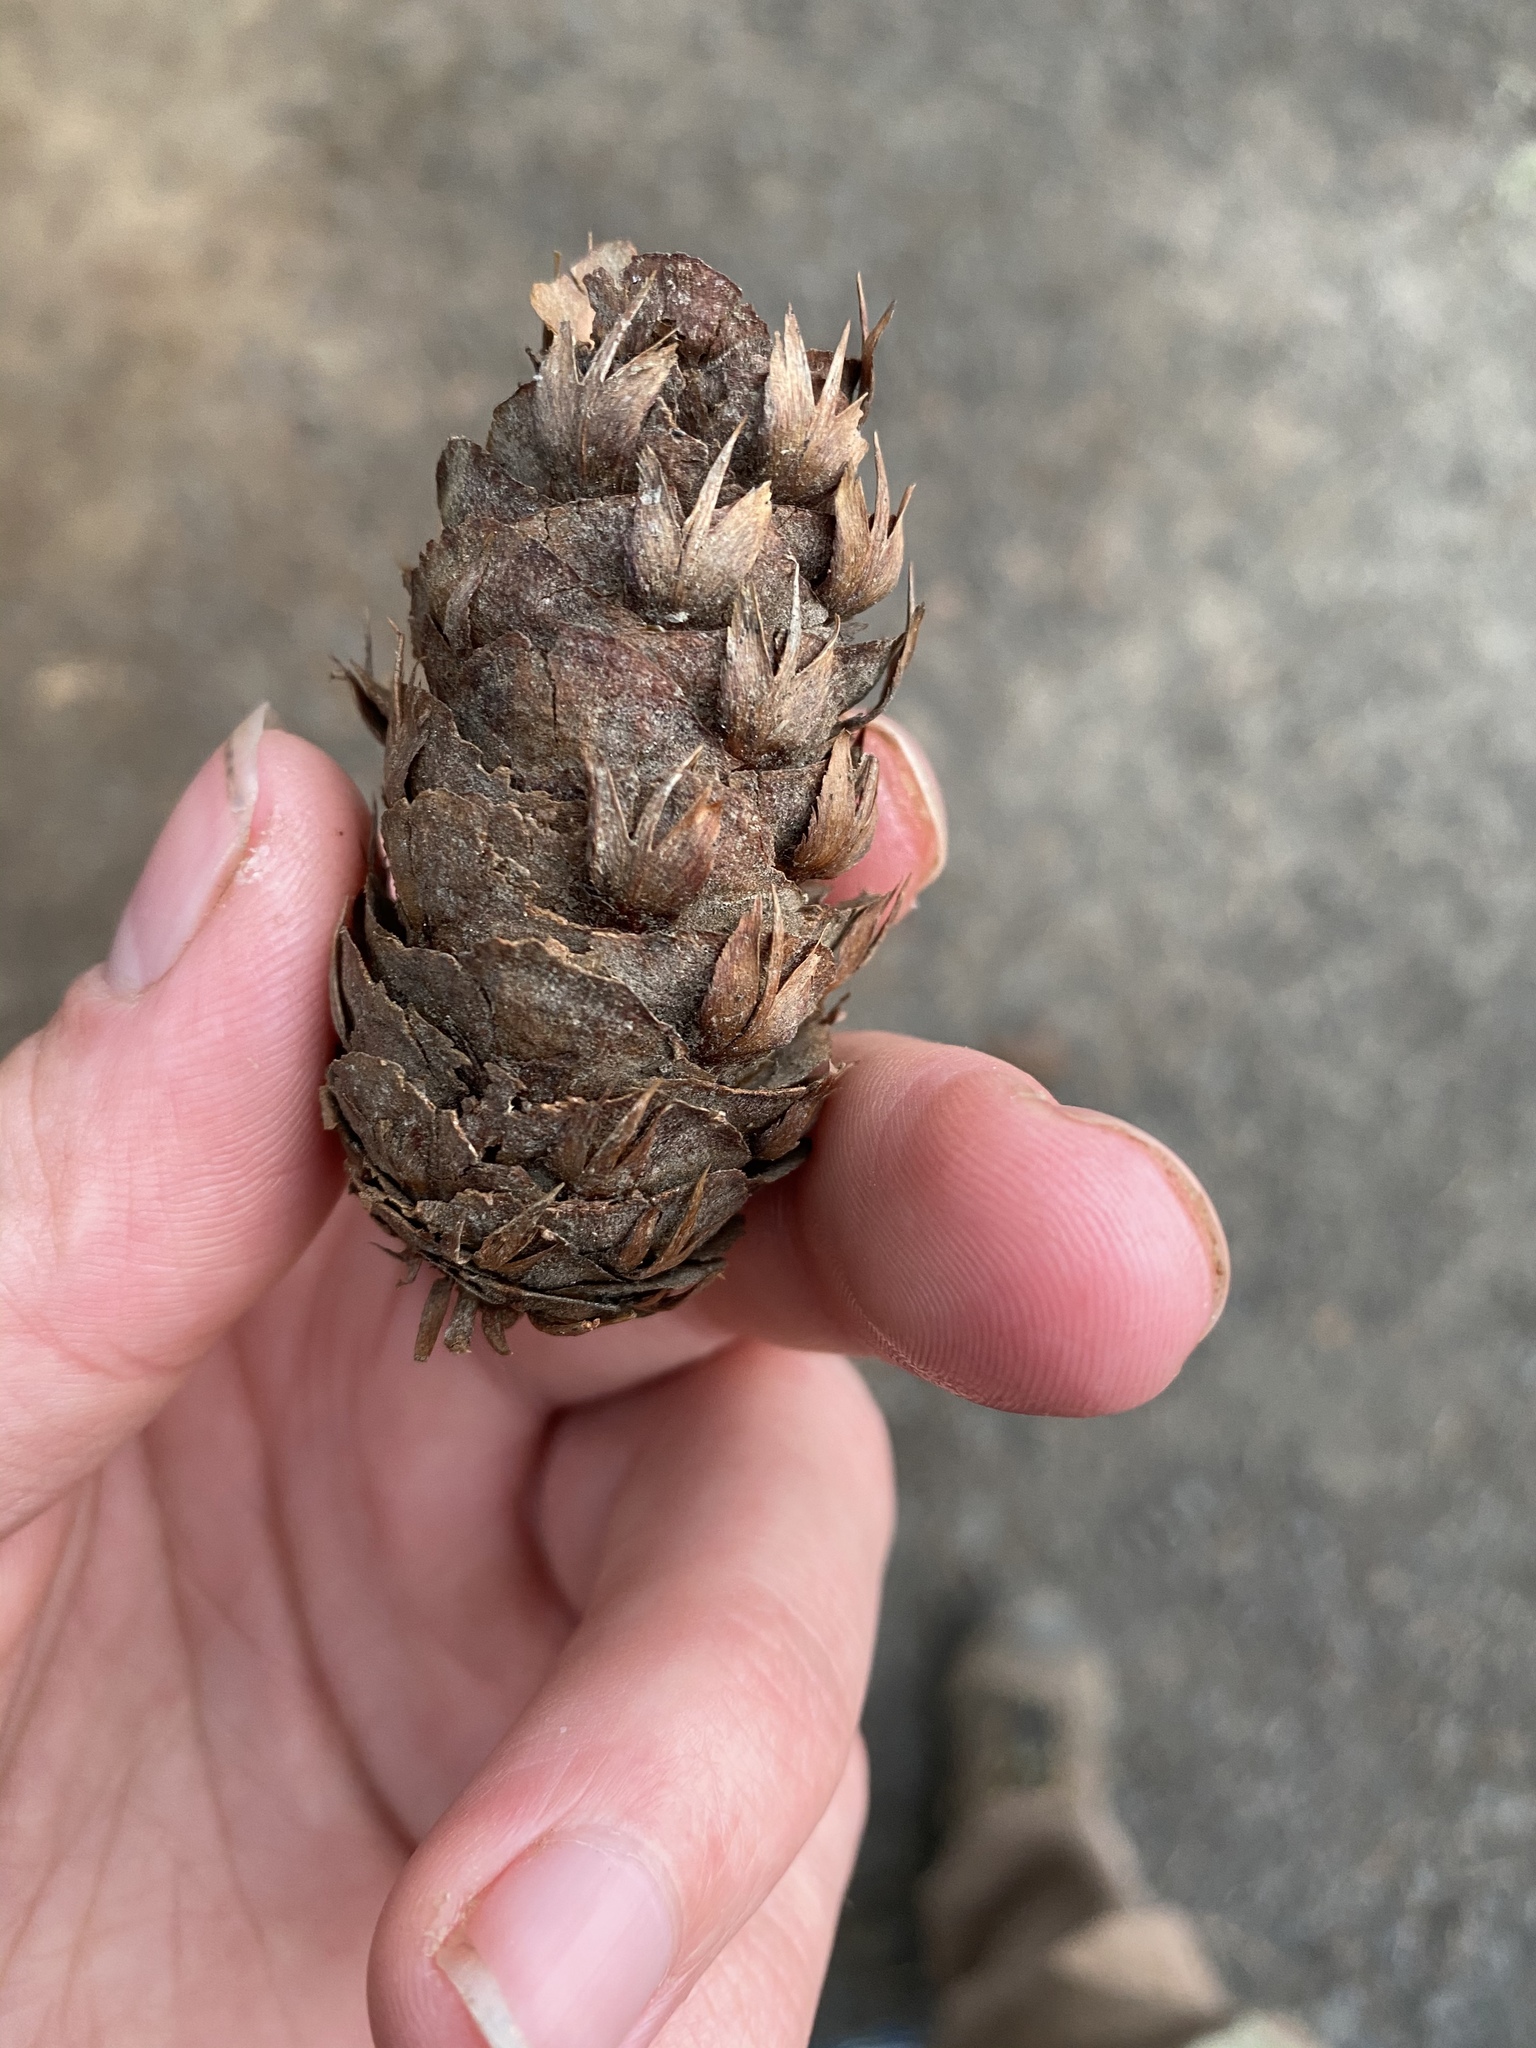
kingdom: Plantae
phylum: Tracheophyta
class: Pinopsida
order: Pinales
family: Pinaceae
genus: Pseudotsuga
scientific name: Pseudotsuga menziesii
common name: Douglas fir
